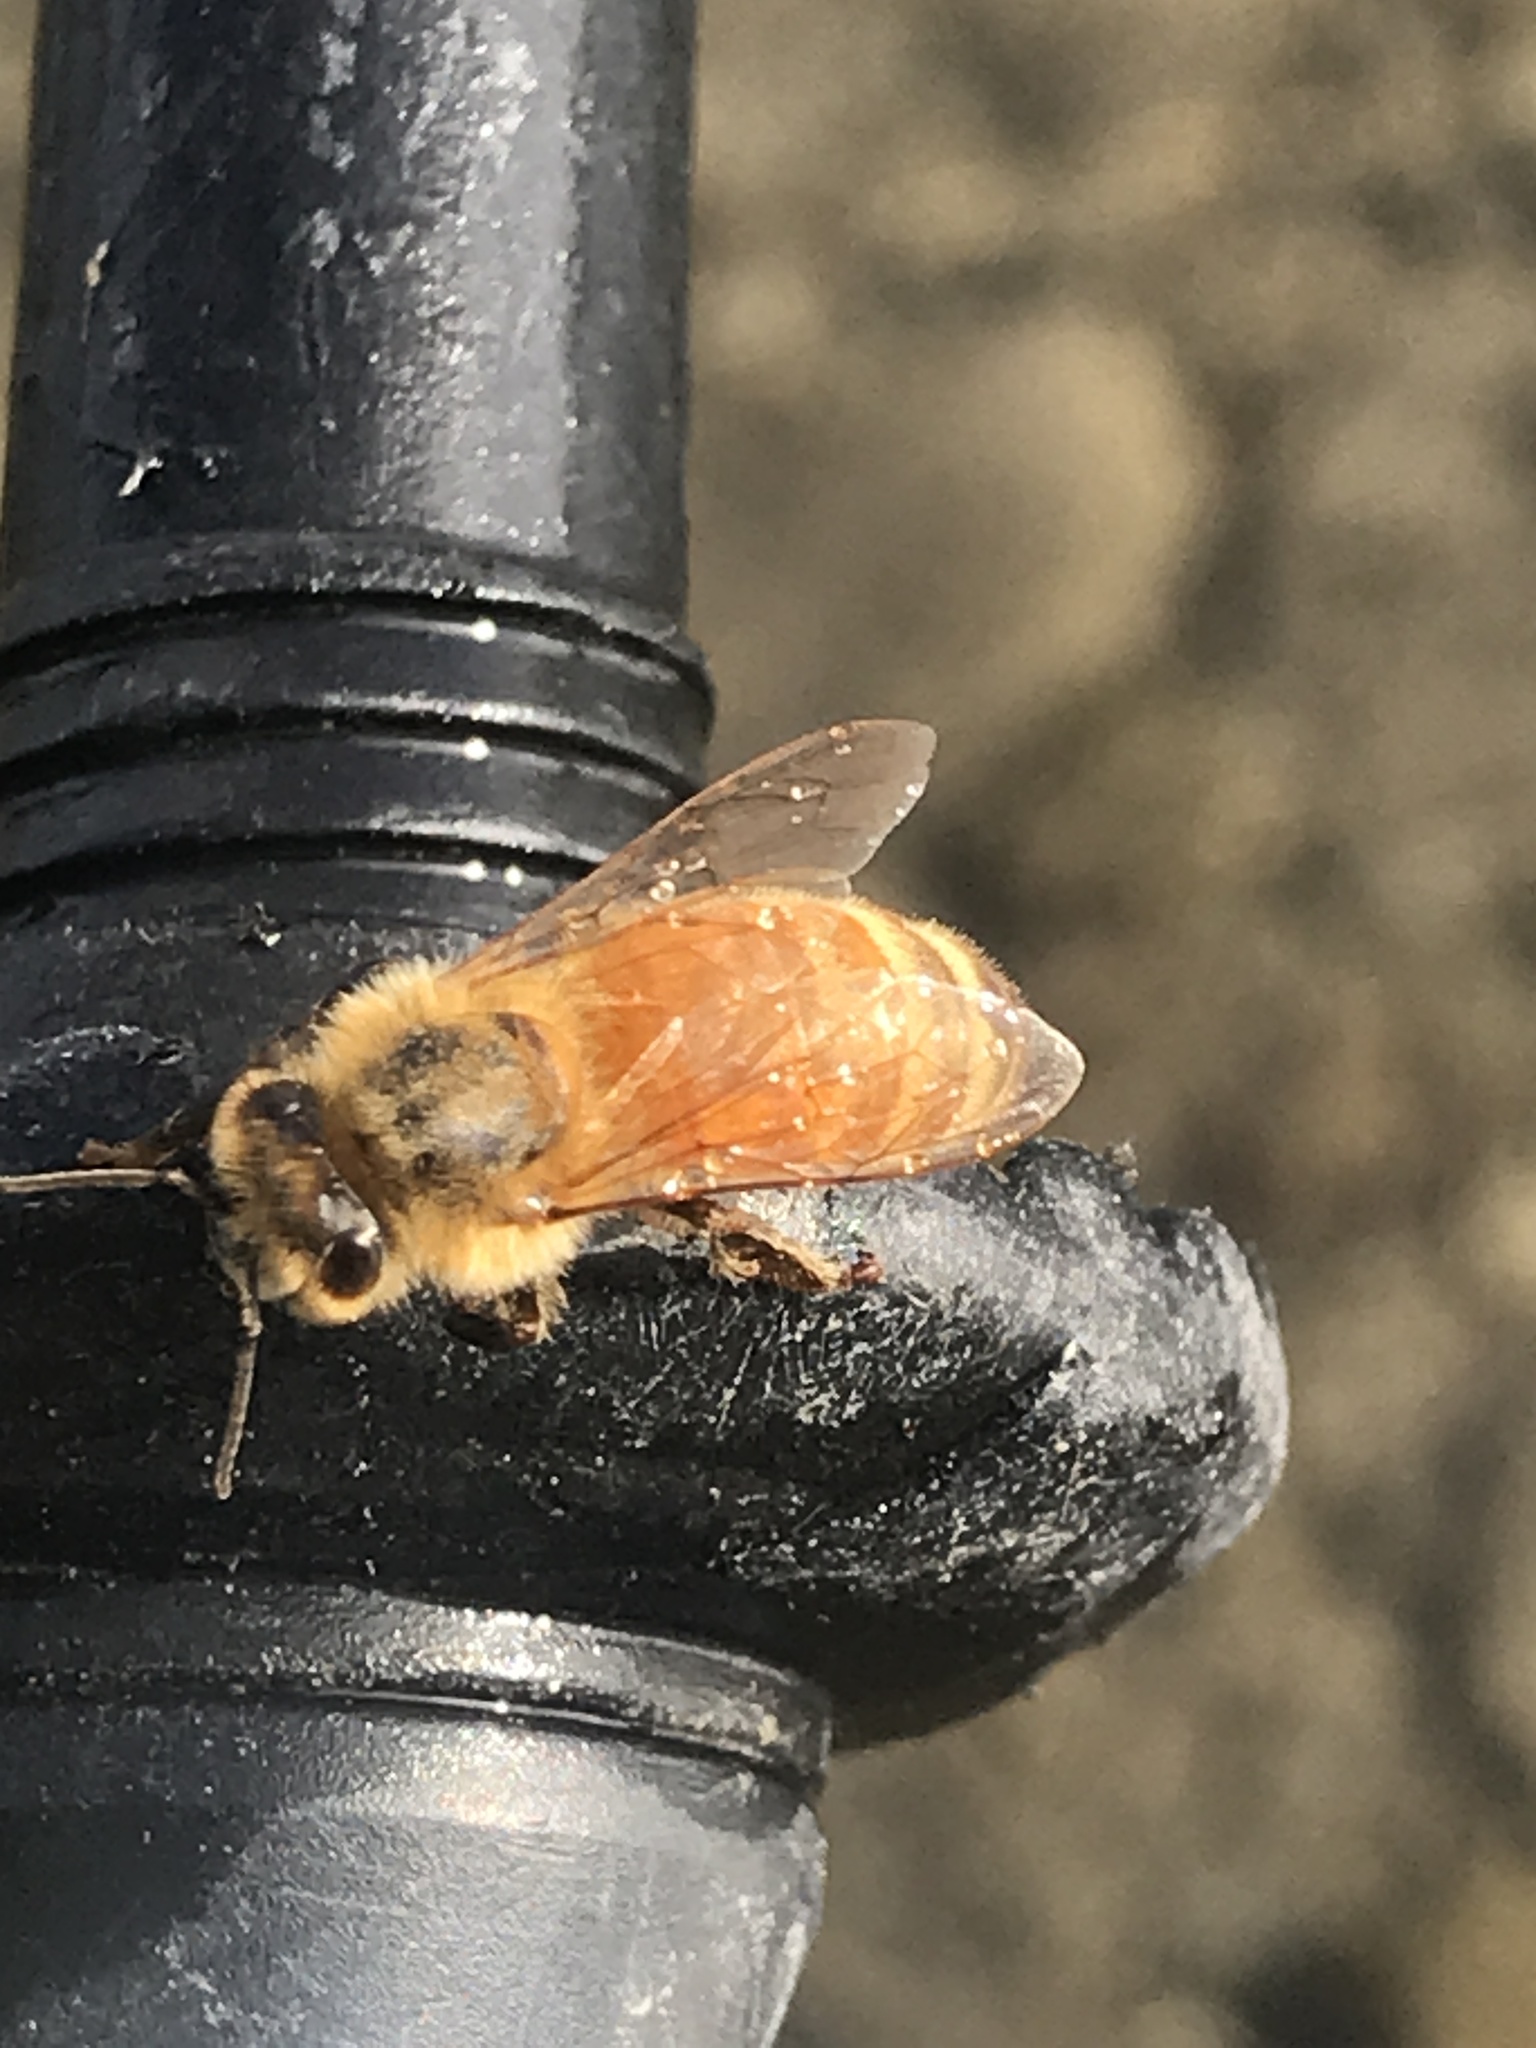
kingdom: Animalia
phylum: Arthropoda
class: Insecta
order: Hymenoptera
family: Apidae
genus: Apis
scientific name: Apis mellifera
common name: Honey bee
